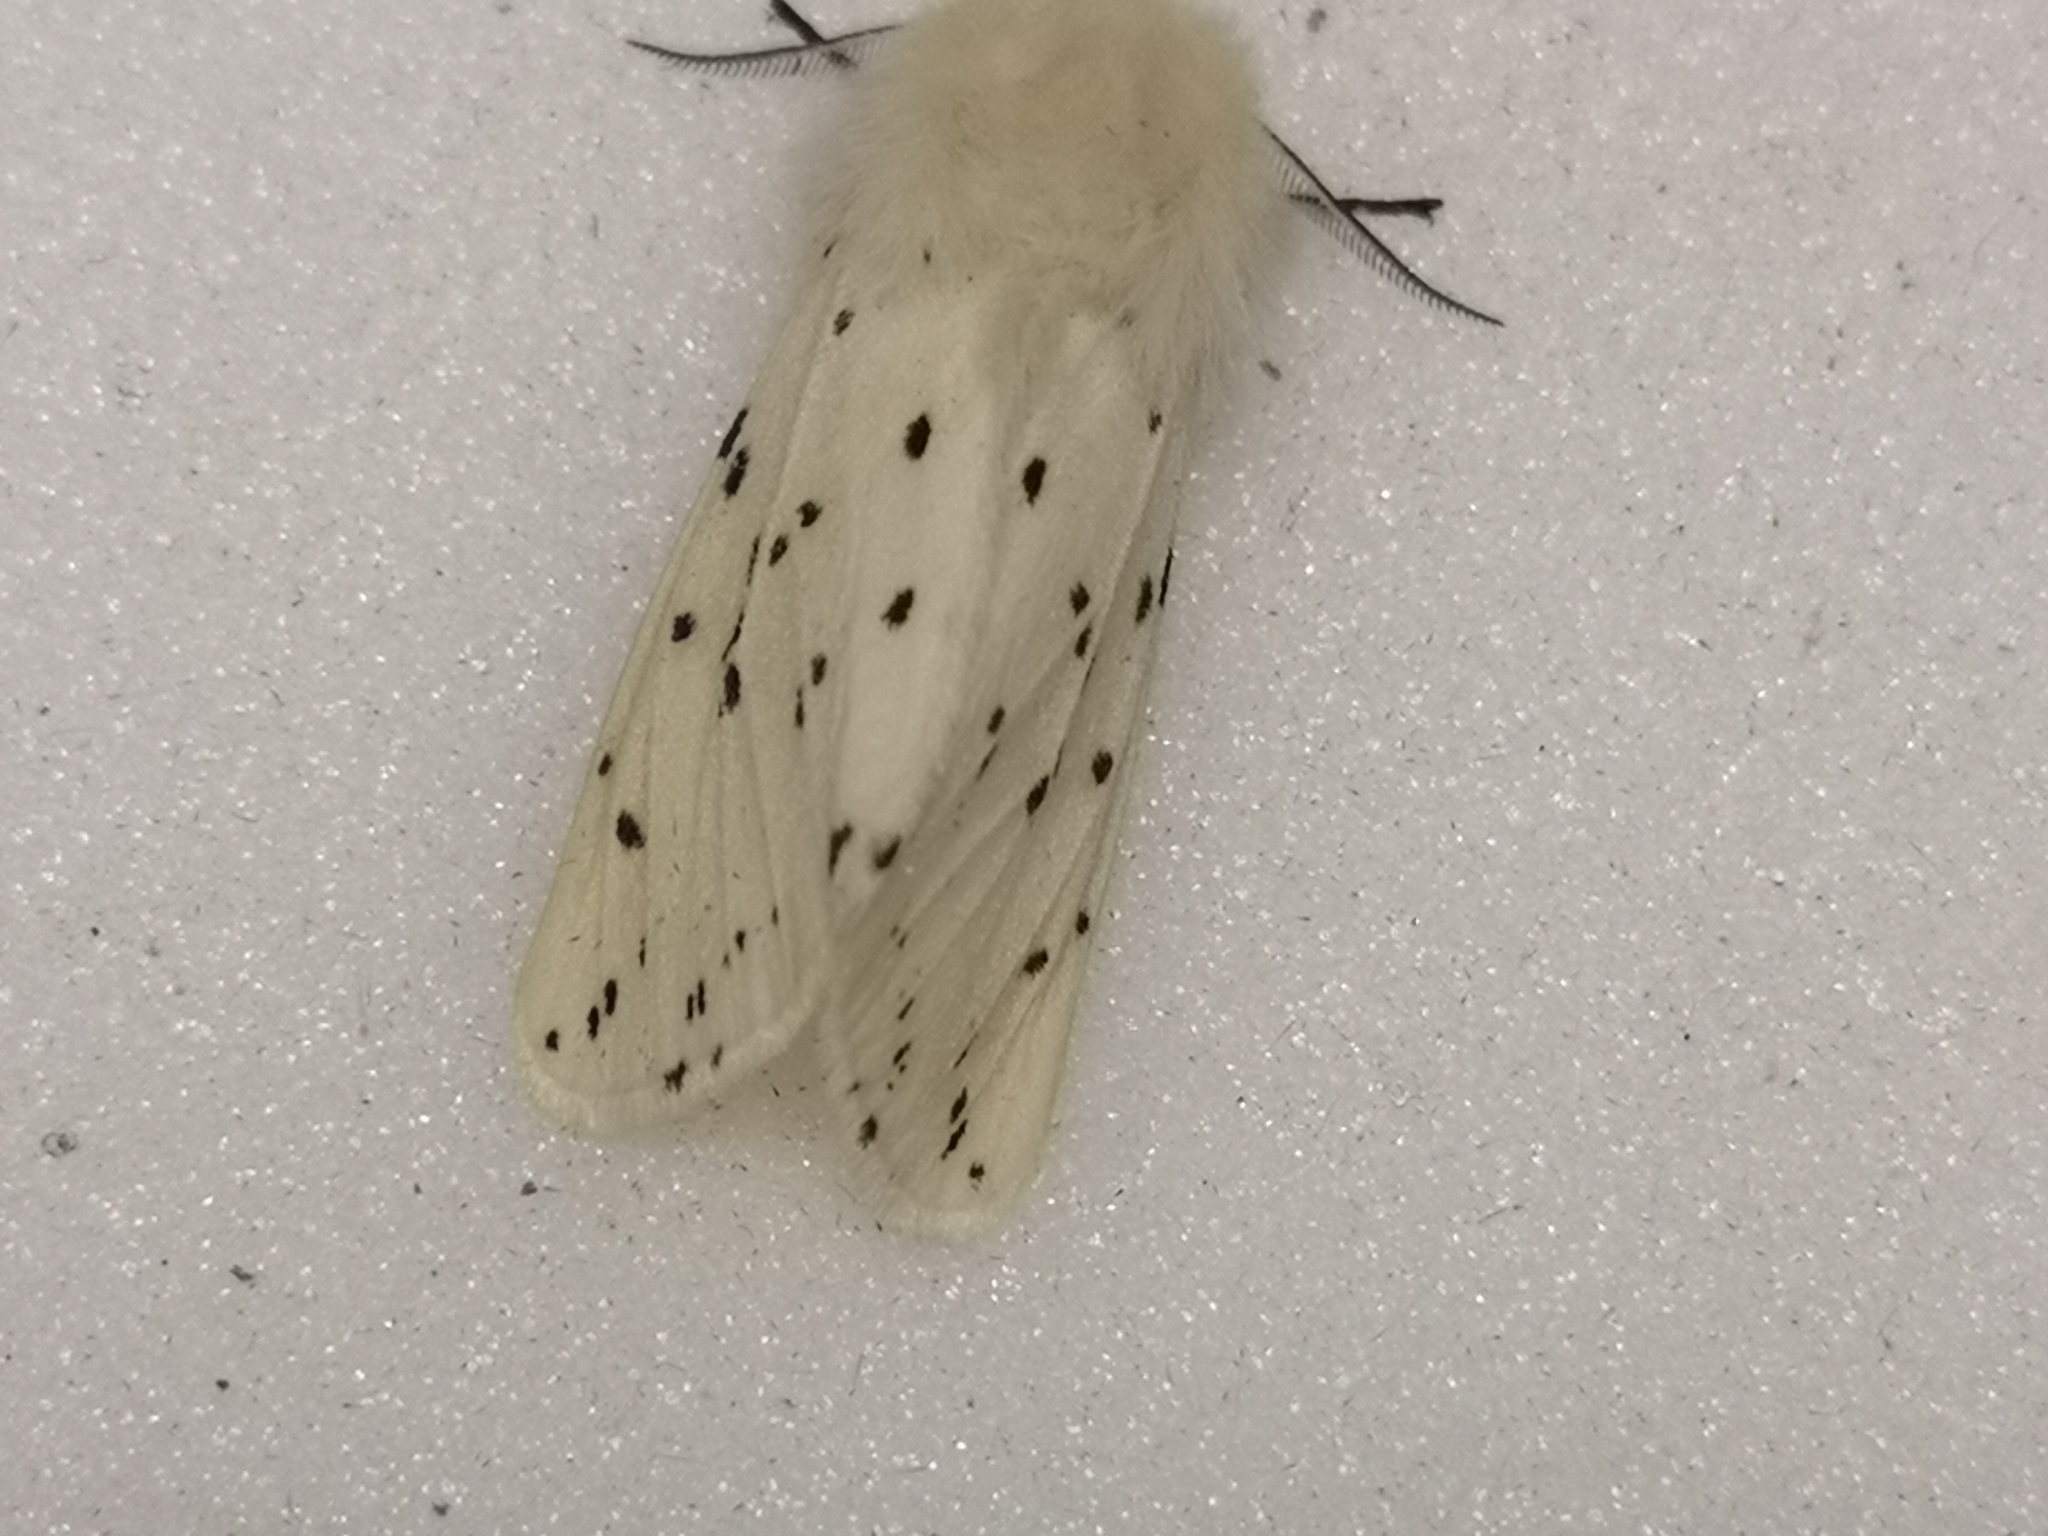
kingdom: Animalia
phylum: Arthropoda
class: Insecta
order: Lepidoptera
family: Erebidae
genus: Spilosoma
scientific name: Spilosoma lubricipeda
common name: White ermine
